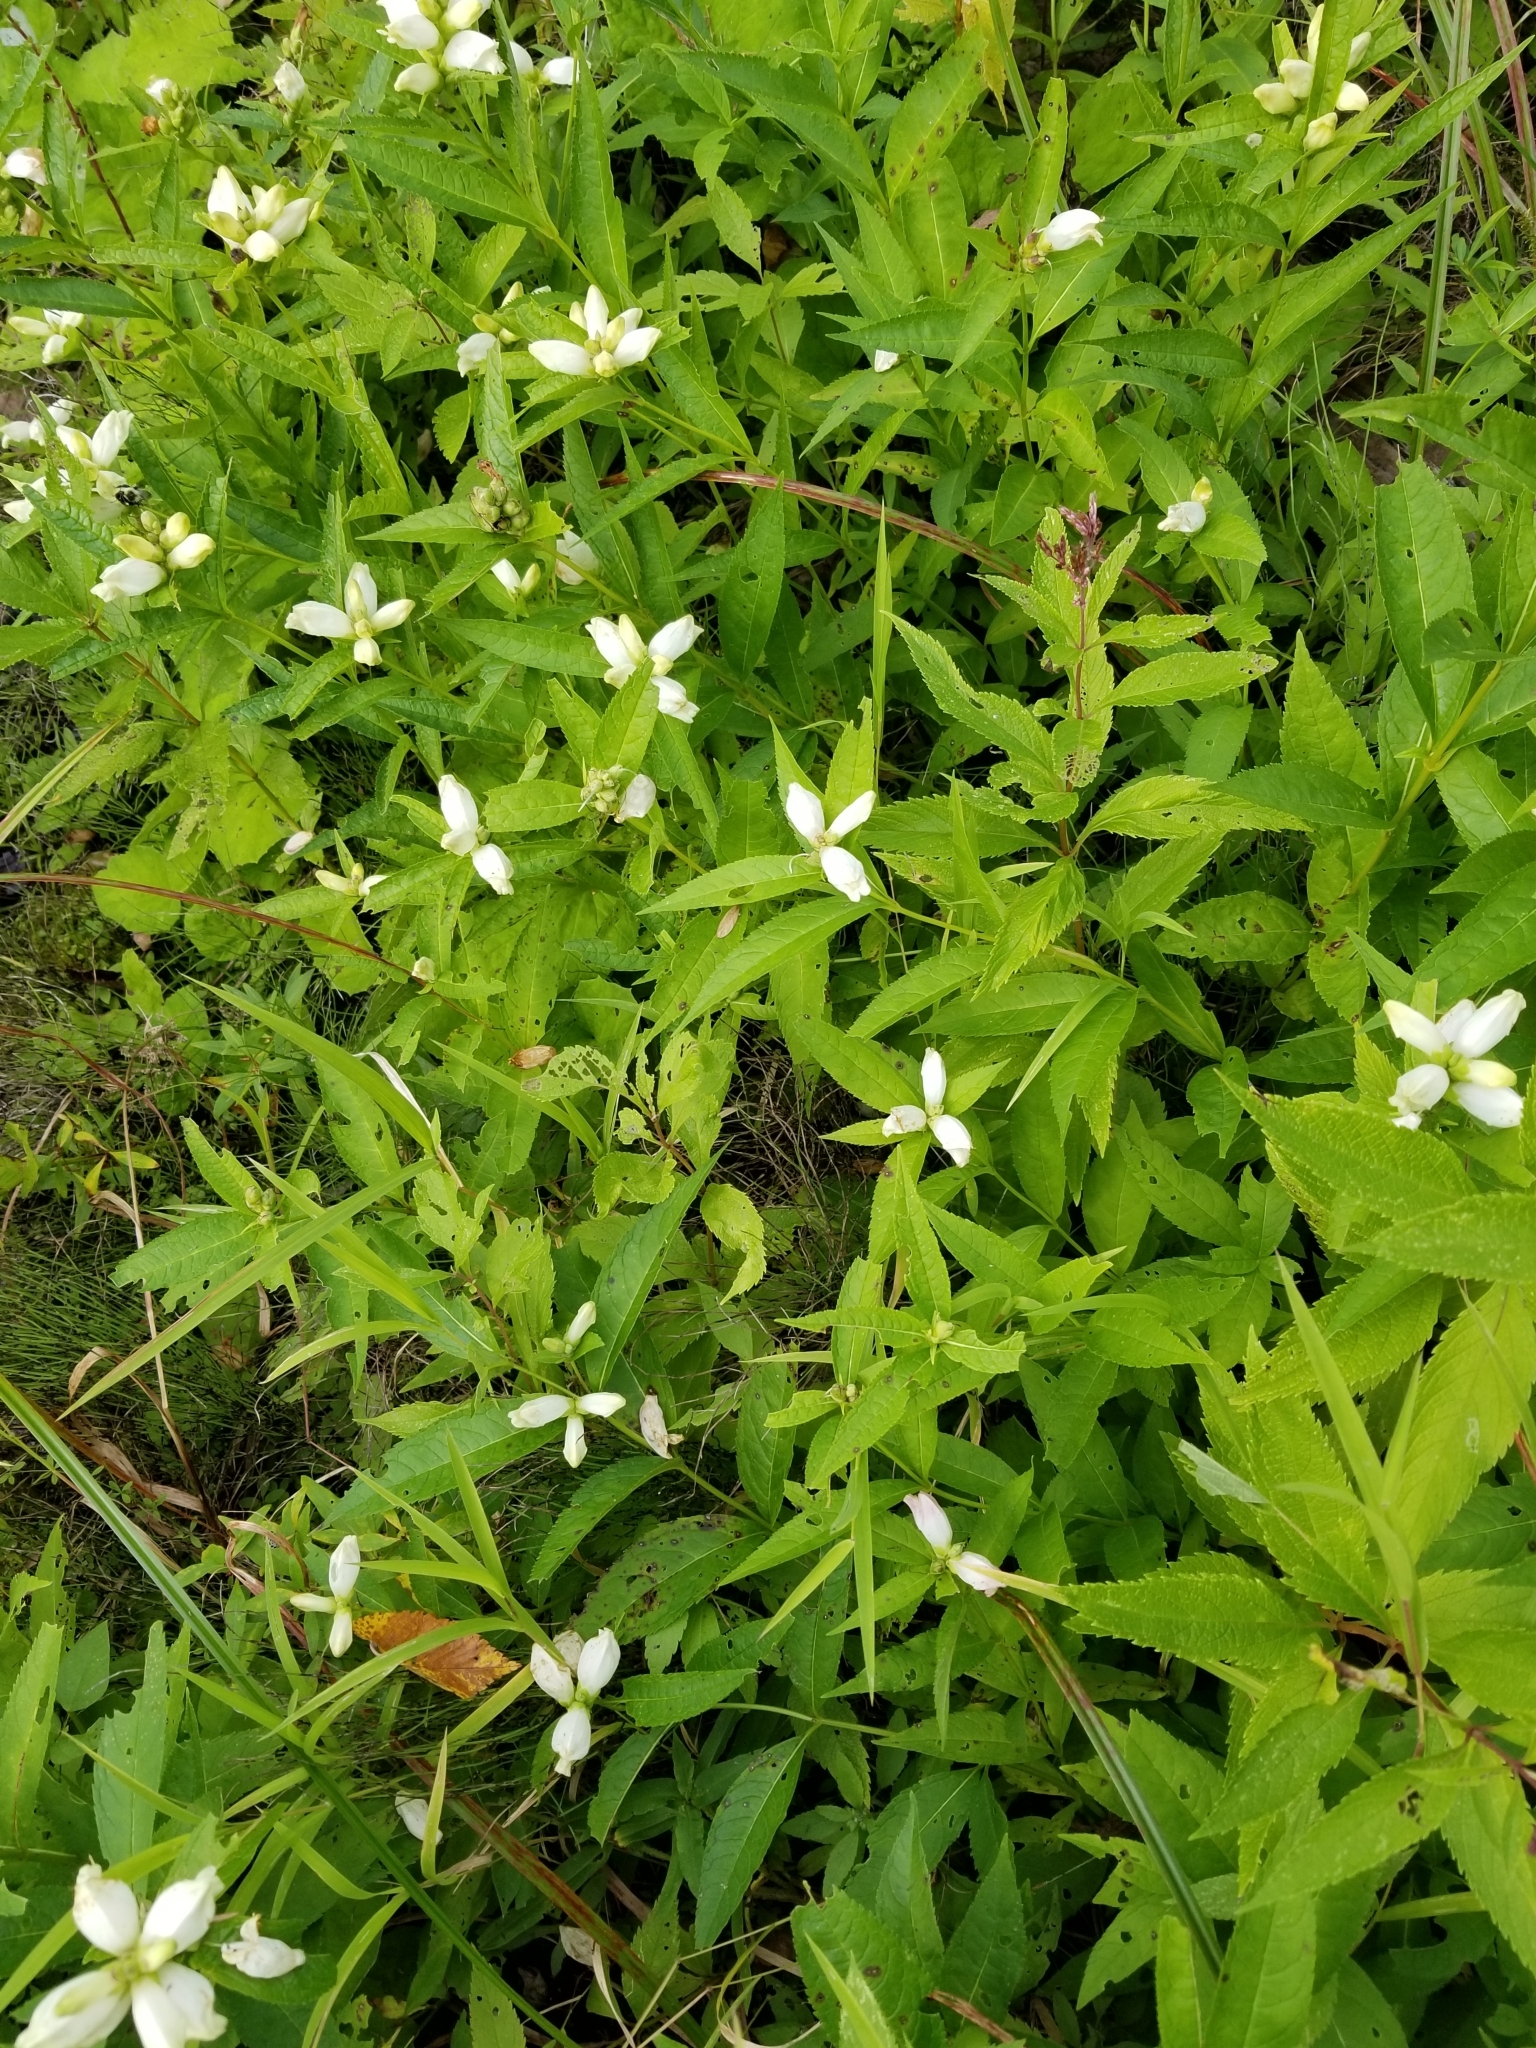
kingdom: Plantae
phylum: Tracheophyta
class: Magnoliopsida
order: Lamiales
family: Plantaginaceae
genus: Chelone
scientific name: Chelone glabra
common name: Snakehead
